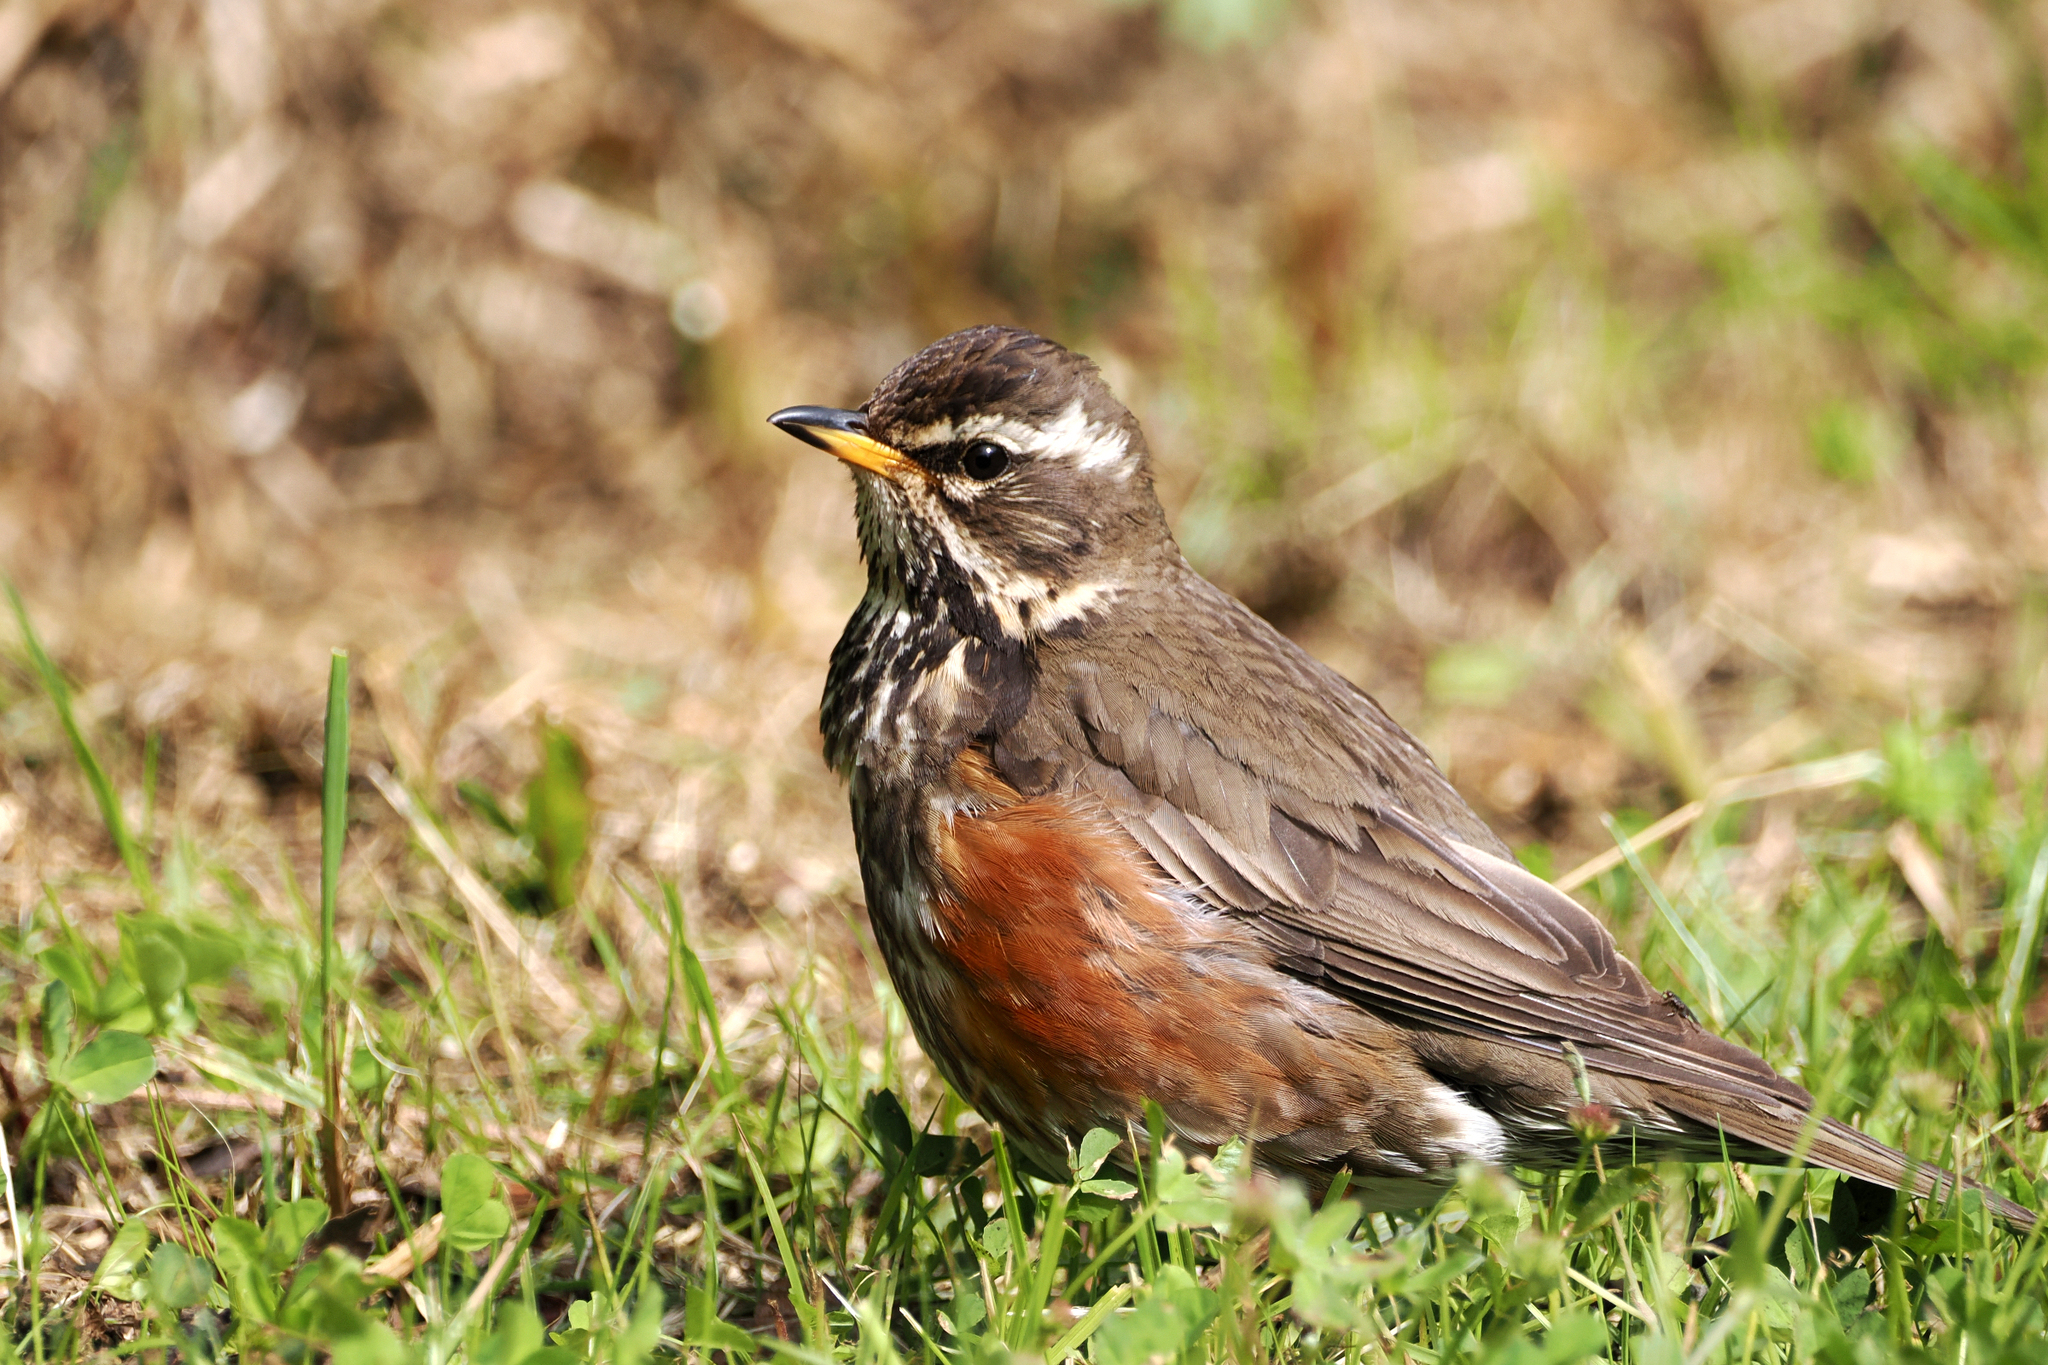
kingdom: Animalia
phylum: Chordata
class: Aves
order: Passeriformes
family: Turdidae
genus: Turdus
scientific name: Turdus iliacus
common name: Redwing
